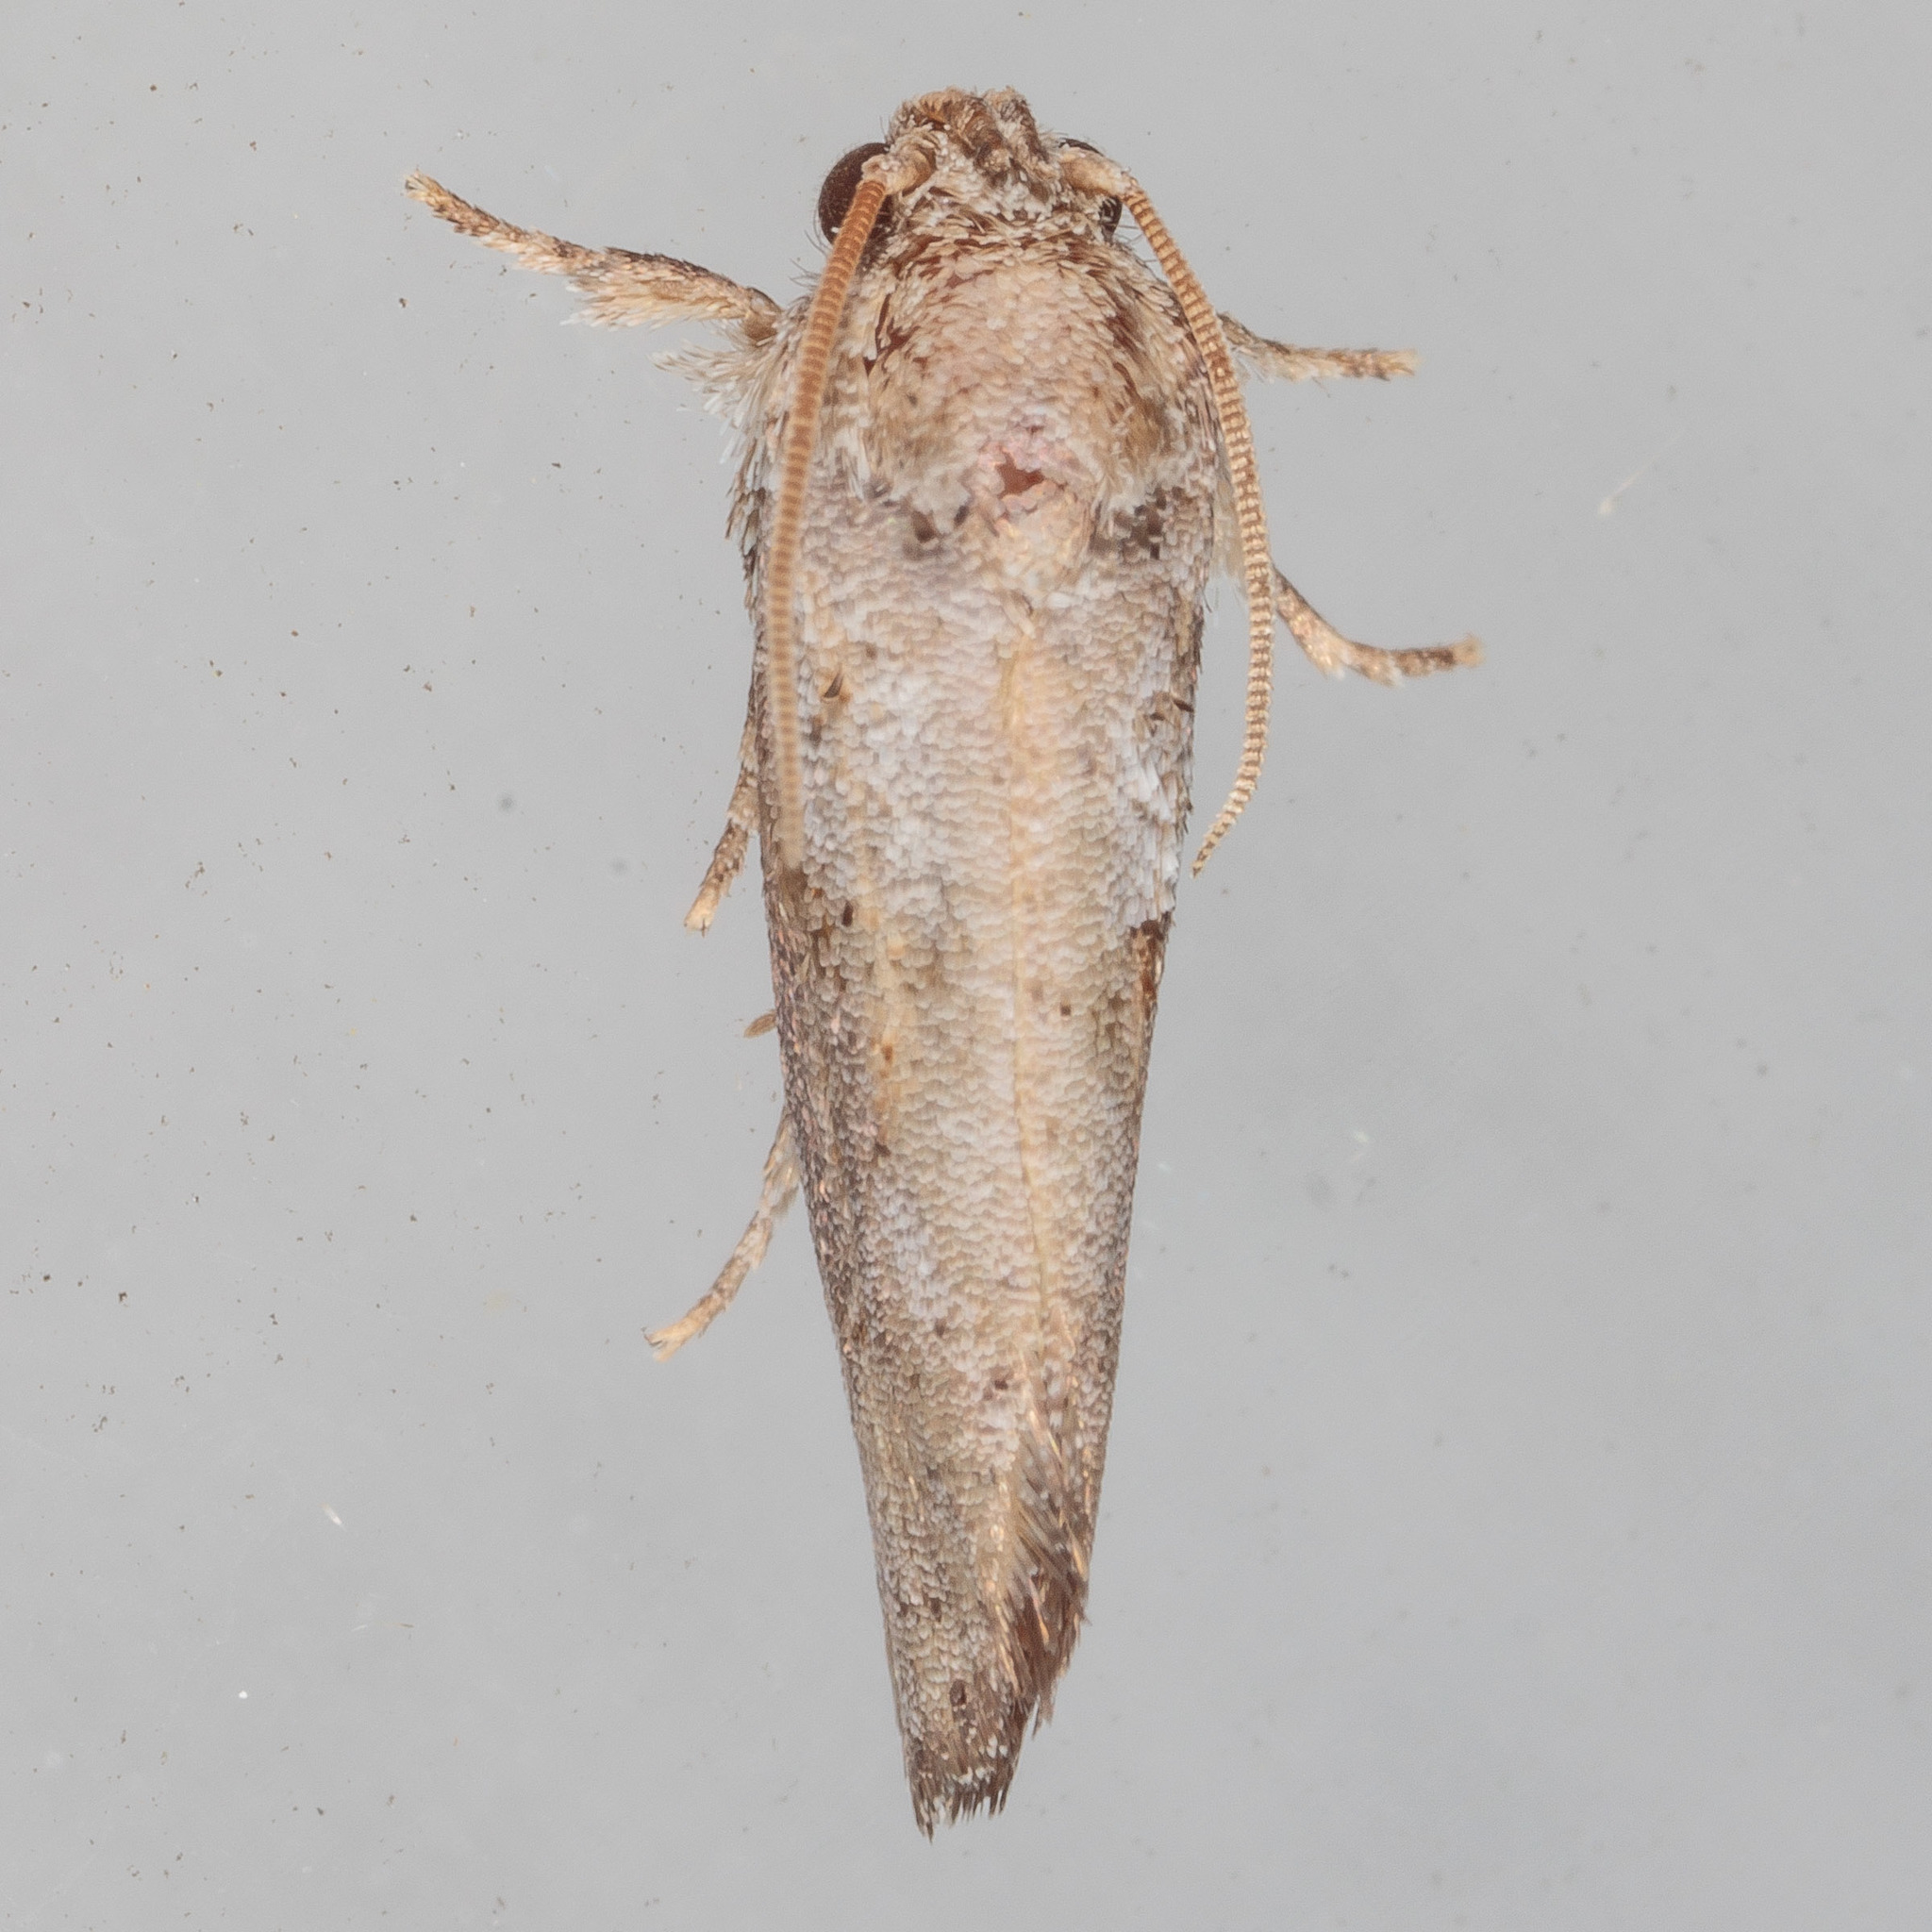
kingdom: Animalia
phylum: Arthropoda
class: Insecta
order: Lepidoptera
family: Tineidae
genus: Acrolophus
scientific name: Acrolophus piger
